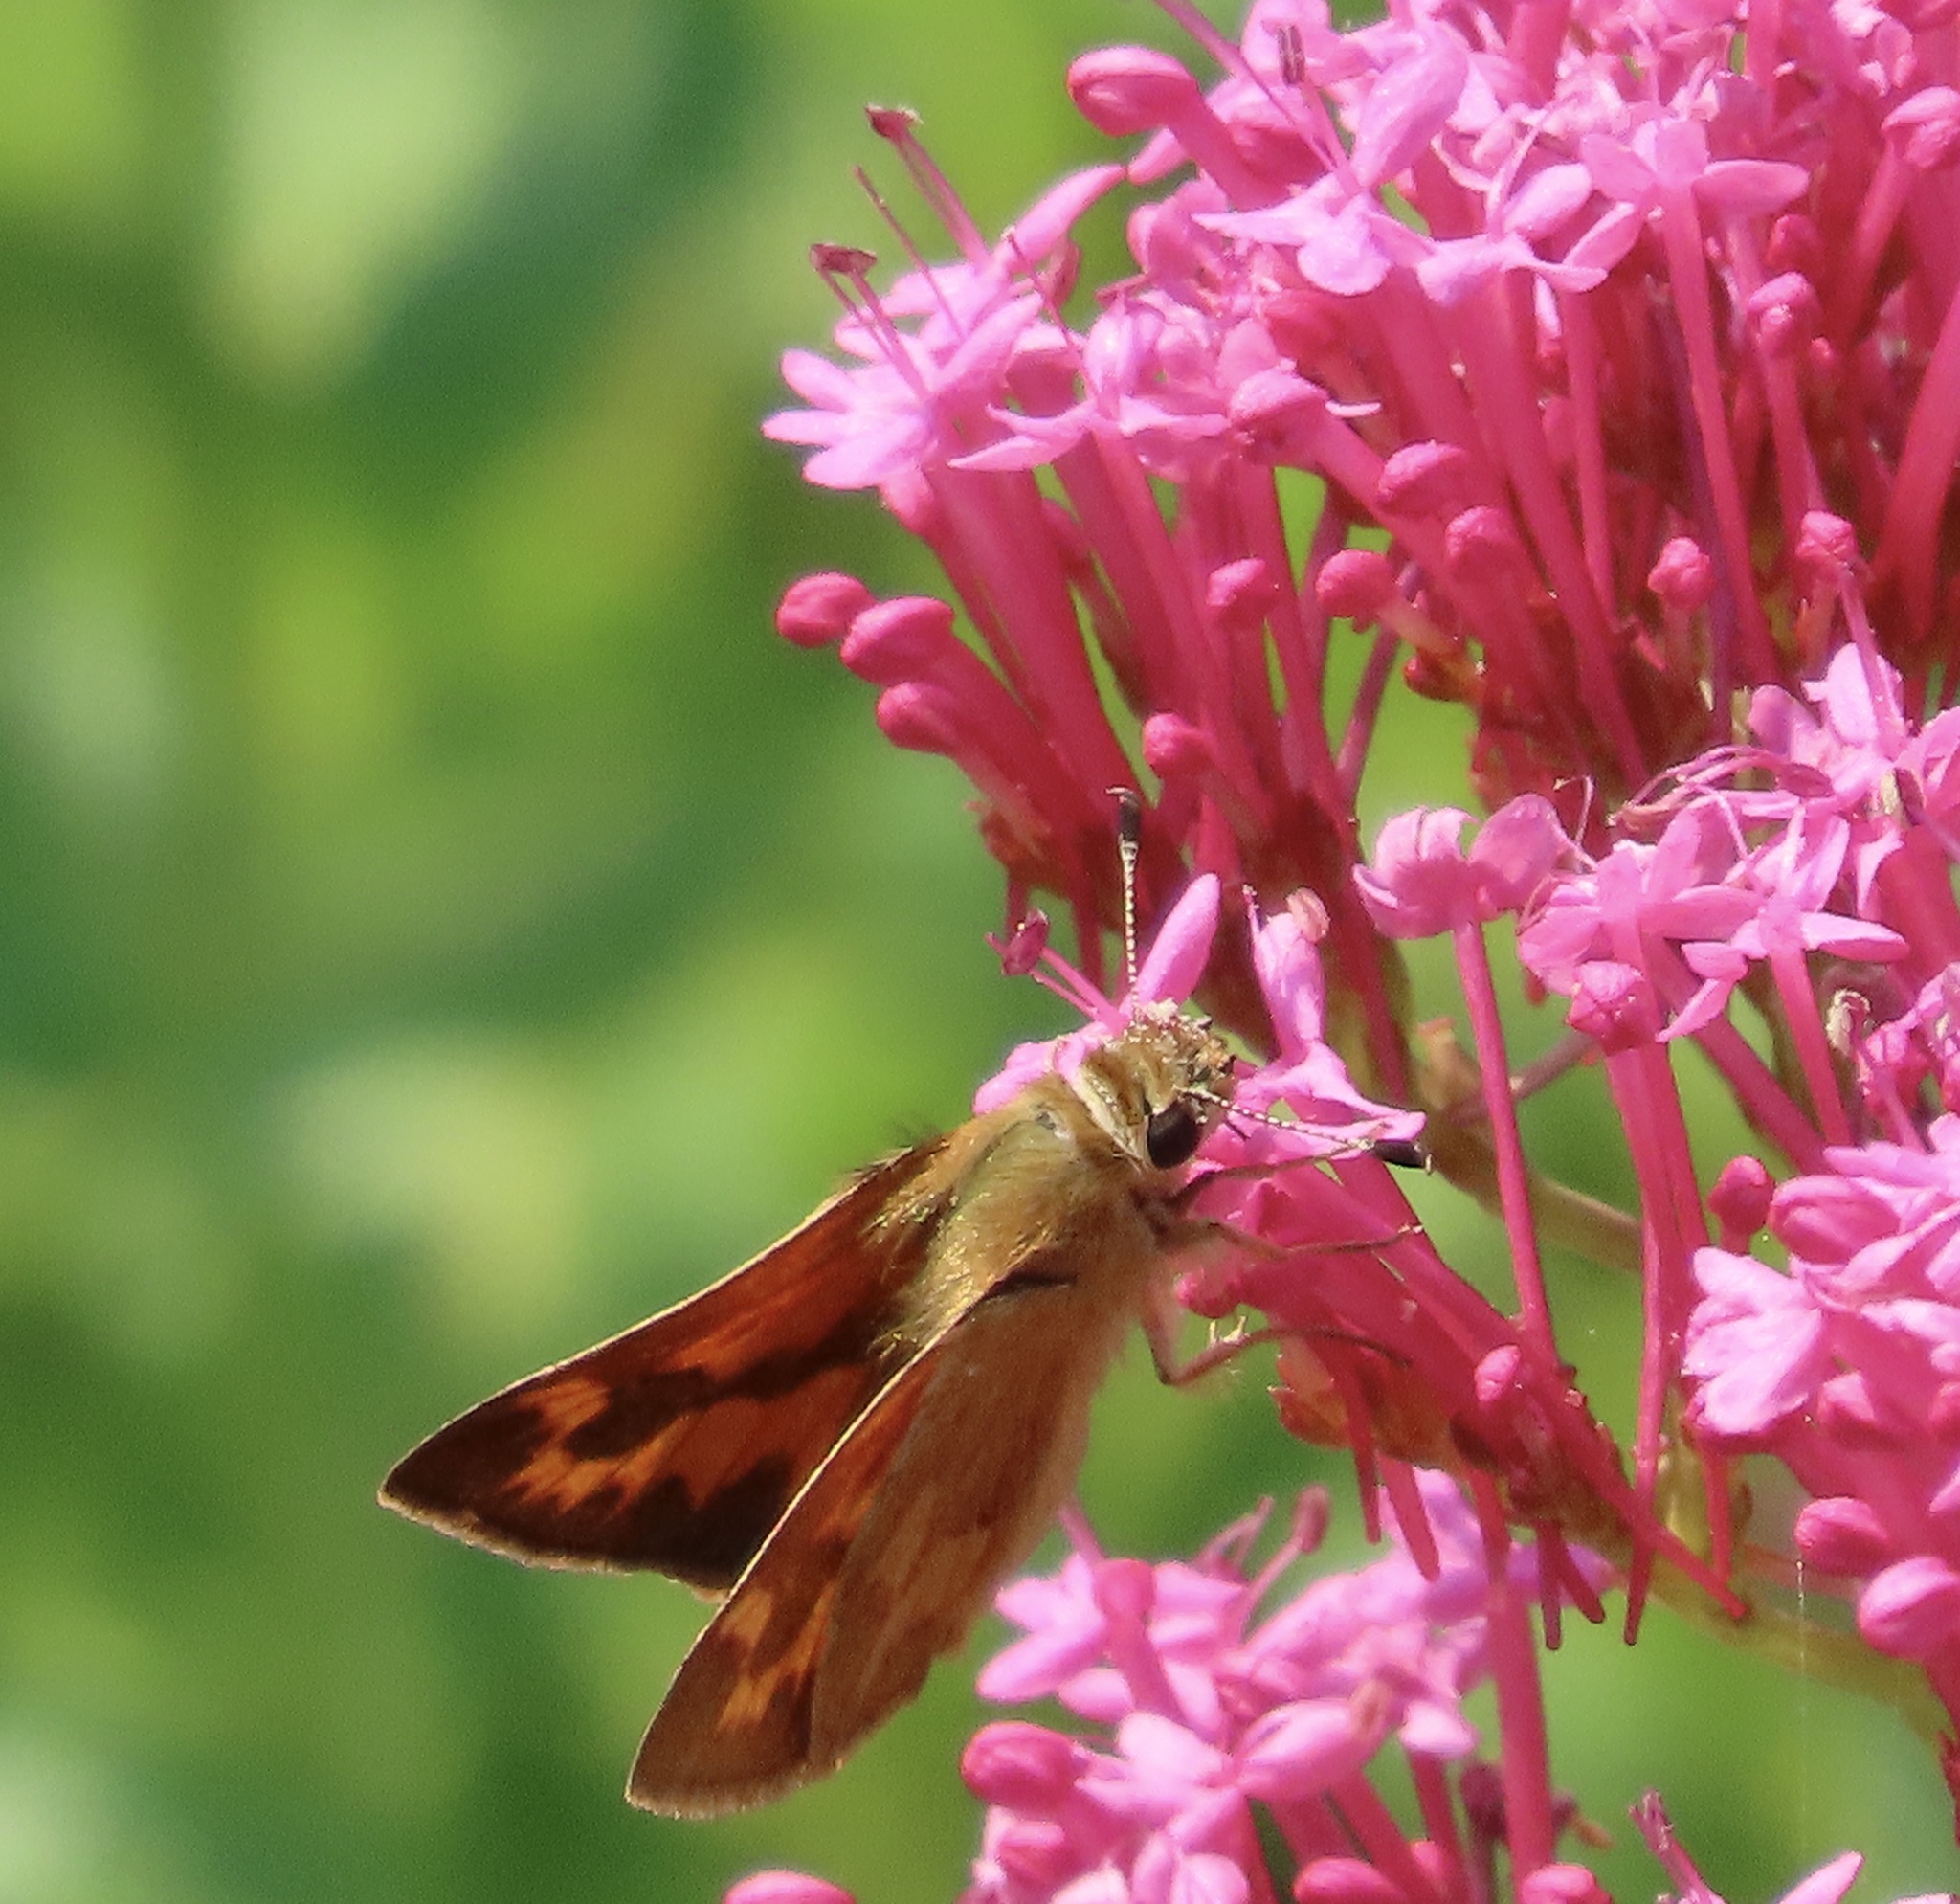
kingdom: Animalia
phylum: Arthropoda
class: Insecta
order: Lepidoptera
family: Hesperiidae
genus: Ochlodes
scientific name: Ochlodes sylvanoides
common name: Woodland skipper
